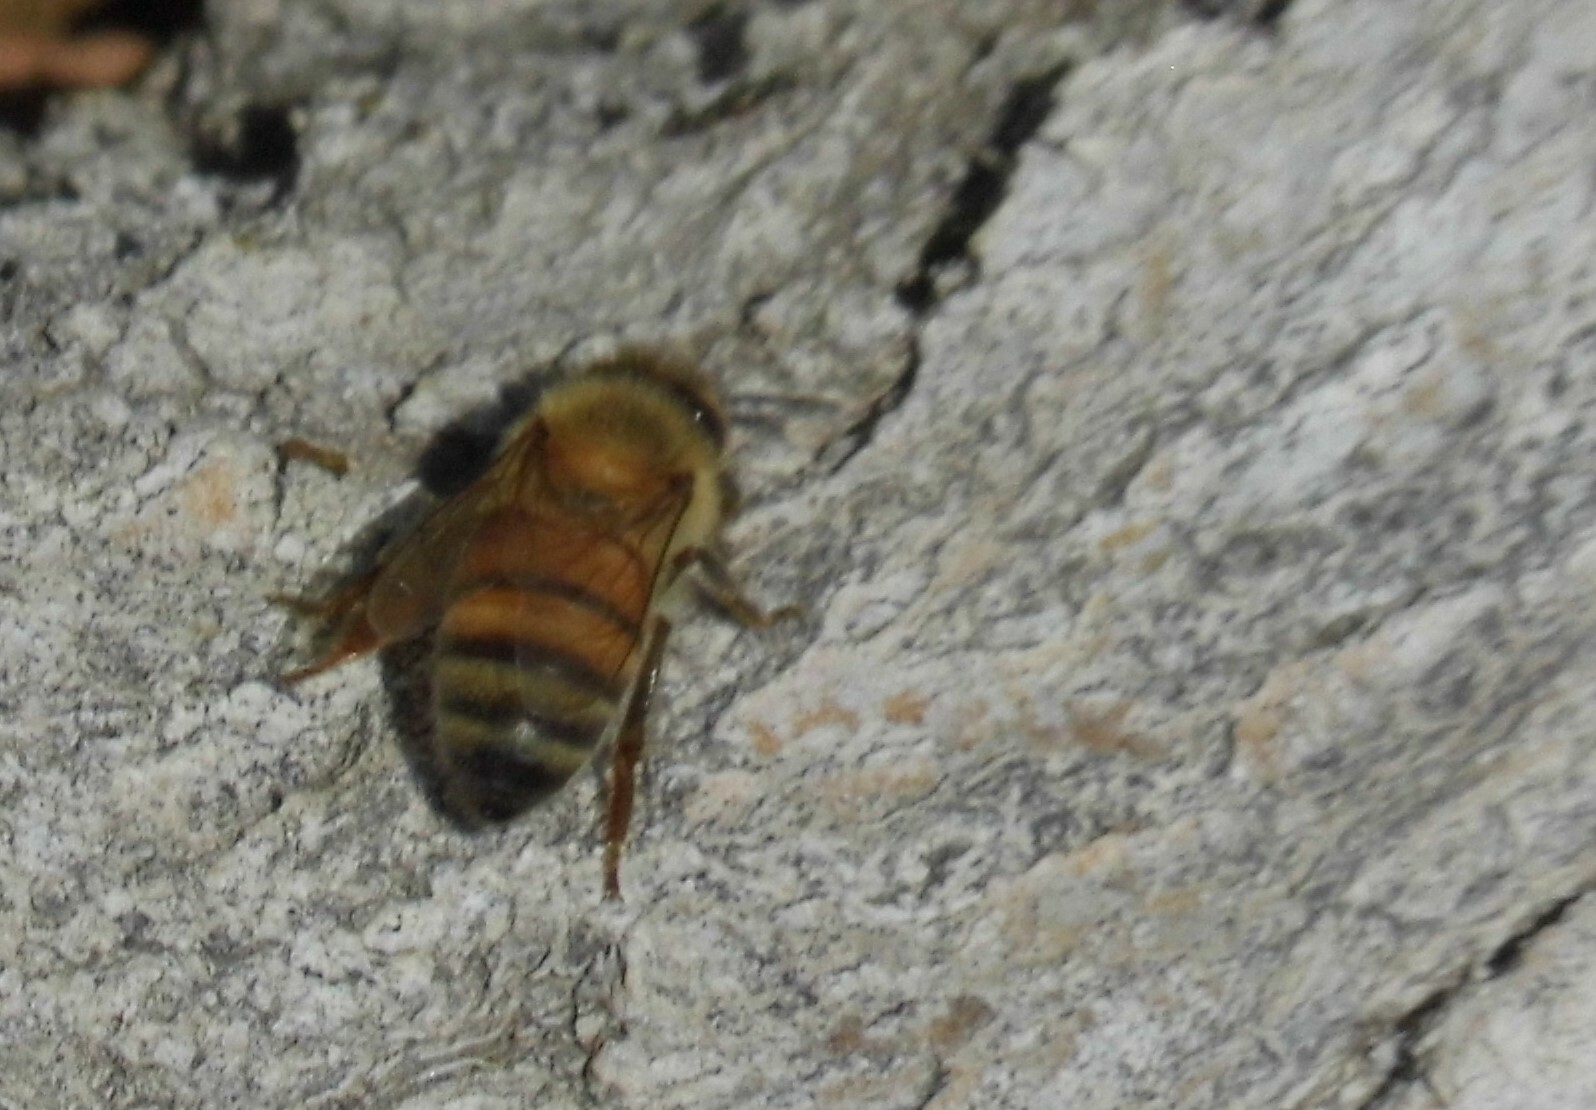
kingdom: Animalia
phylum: Arthropoda
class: Insecta
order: Hymenoptera
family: Apidae
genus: Apis
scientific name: Apis mellifera
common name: Honey bee
